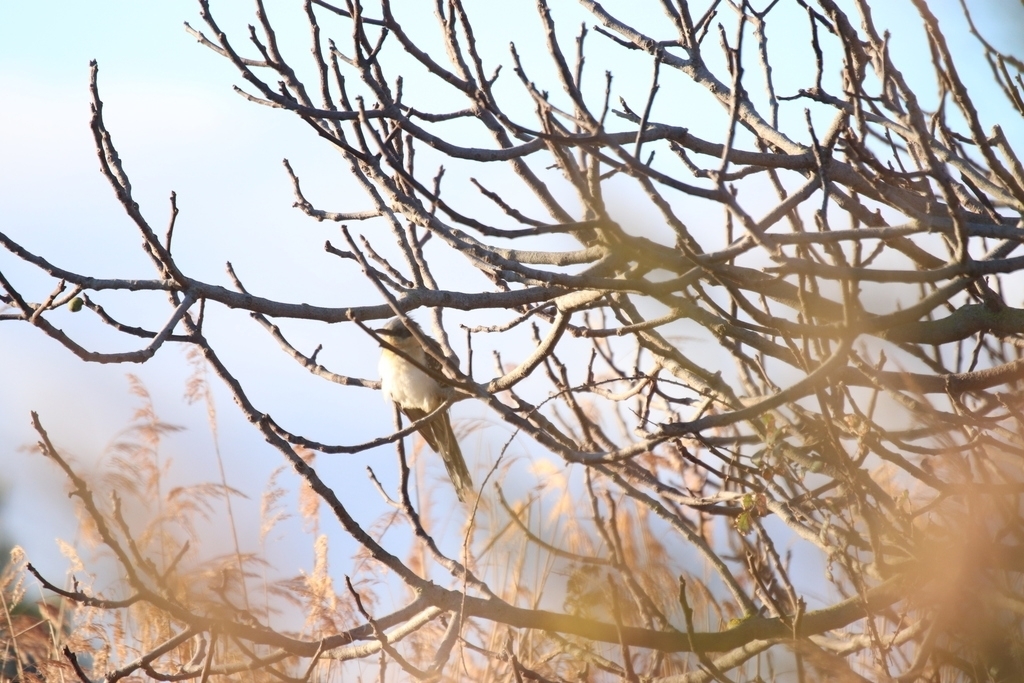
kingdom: Animalia
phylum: Chordata
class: Aves
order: Cuculiformes
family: Cuculidae
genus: Clamator
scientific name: Clamator glandarius
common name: Great spotted cuckoo
